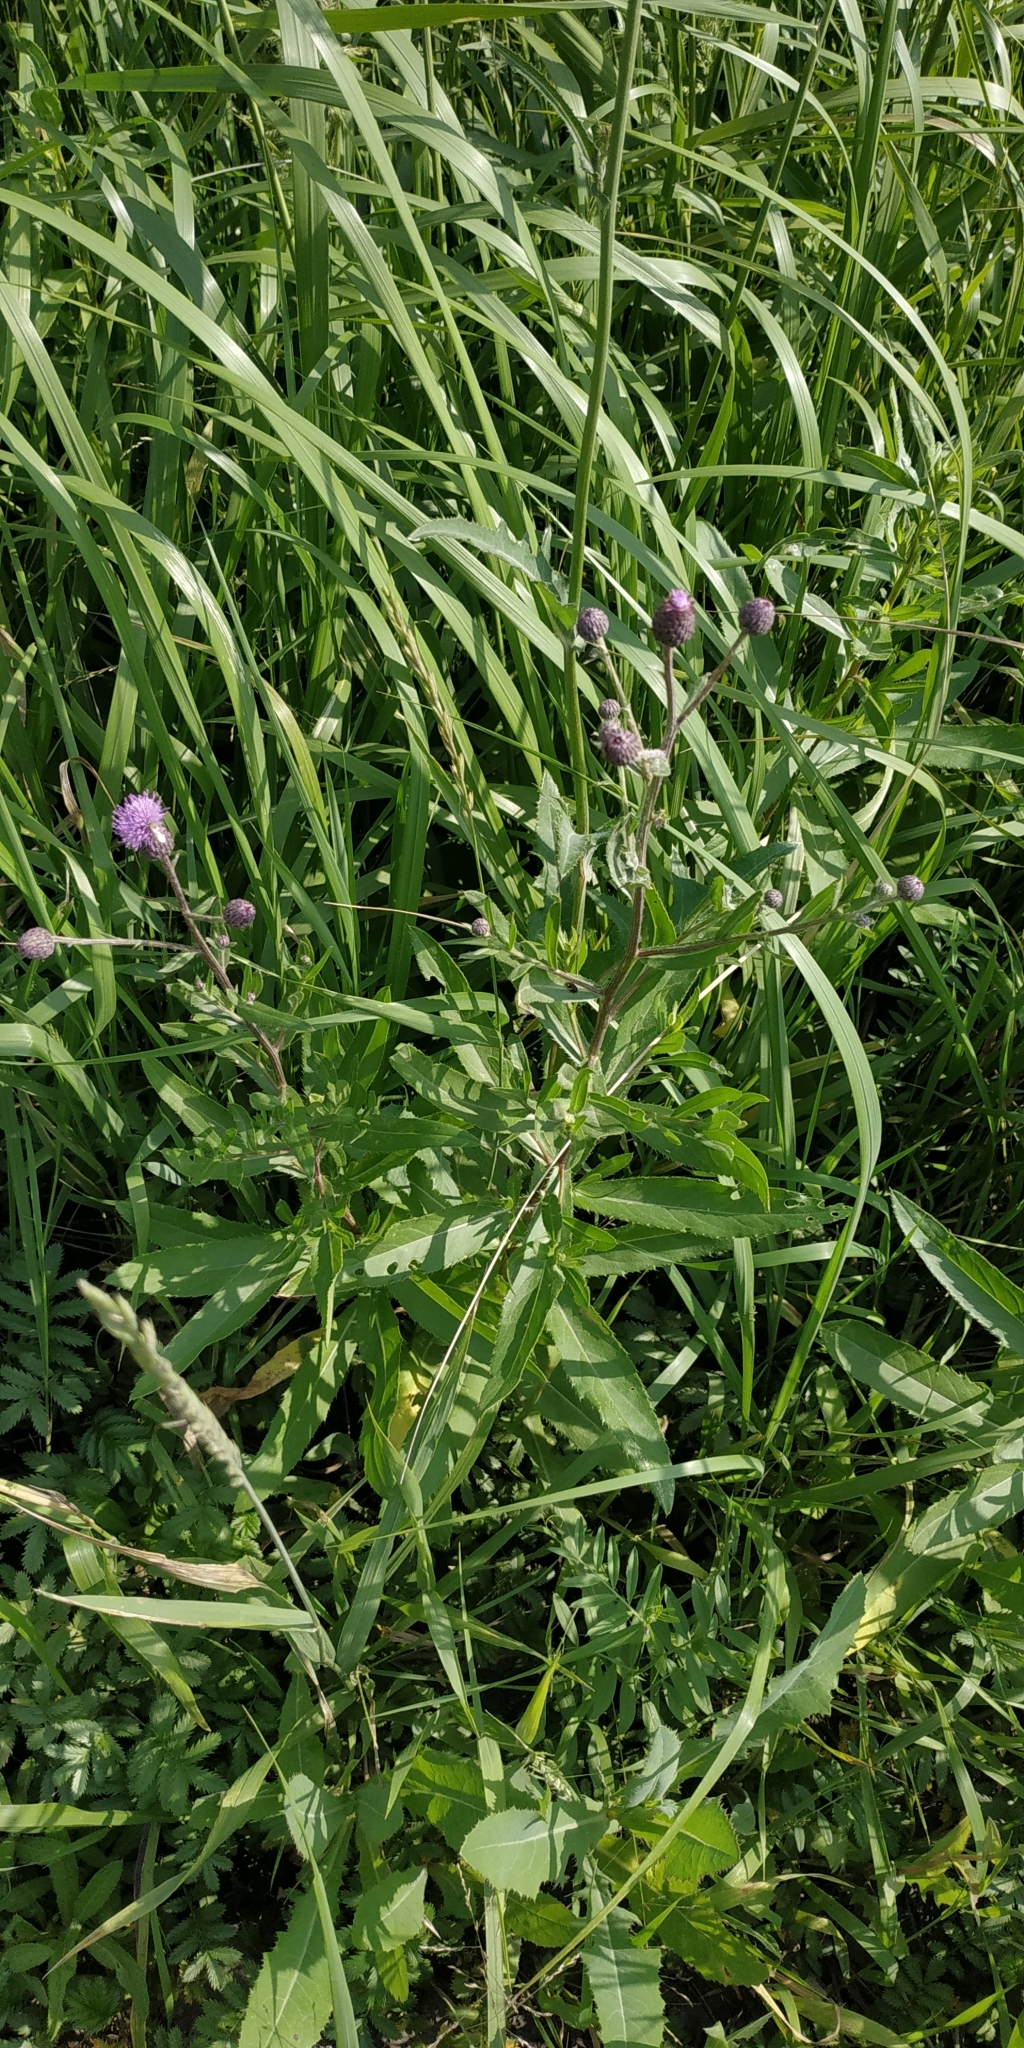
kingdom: Plantae
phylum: Tracheophyta
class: Magnoliopsida
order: Asterales
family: Asteraceae
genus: Cirsium
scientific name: Cirsium arvense
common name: Creeping thistle
